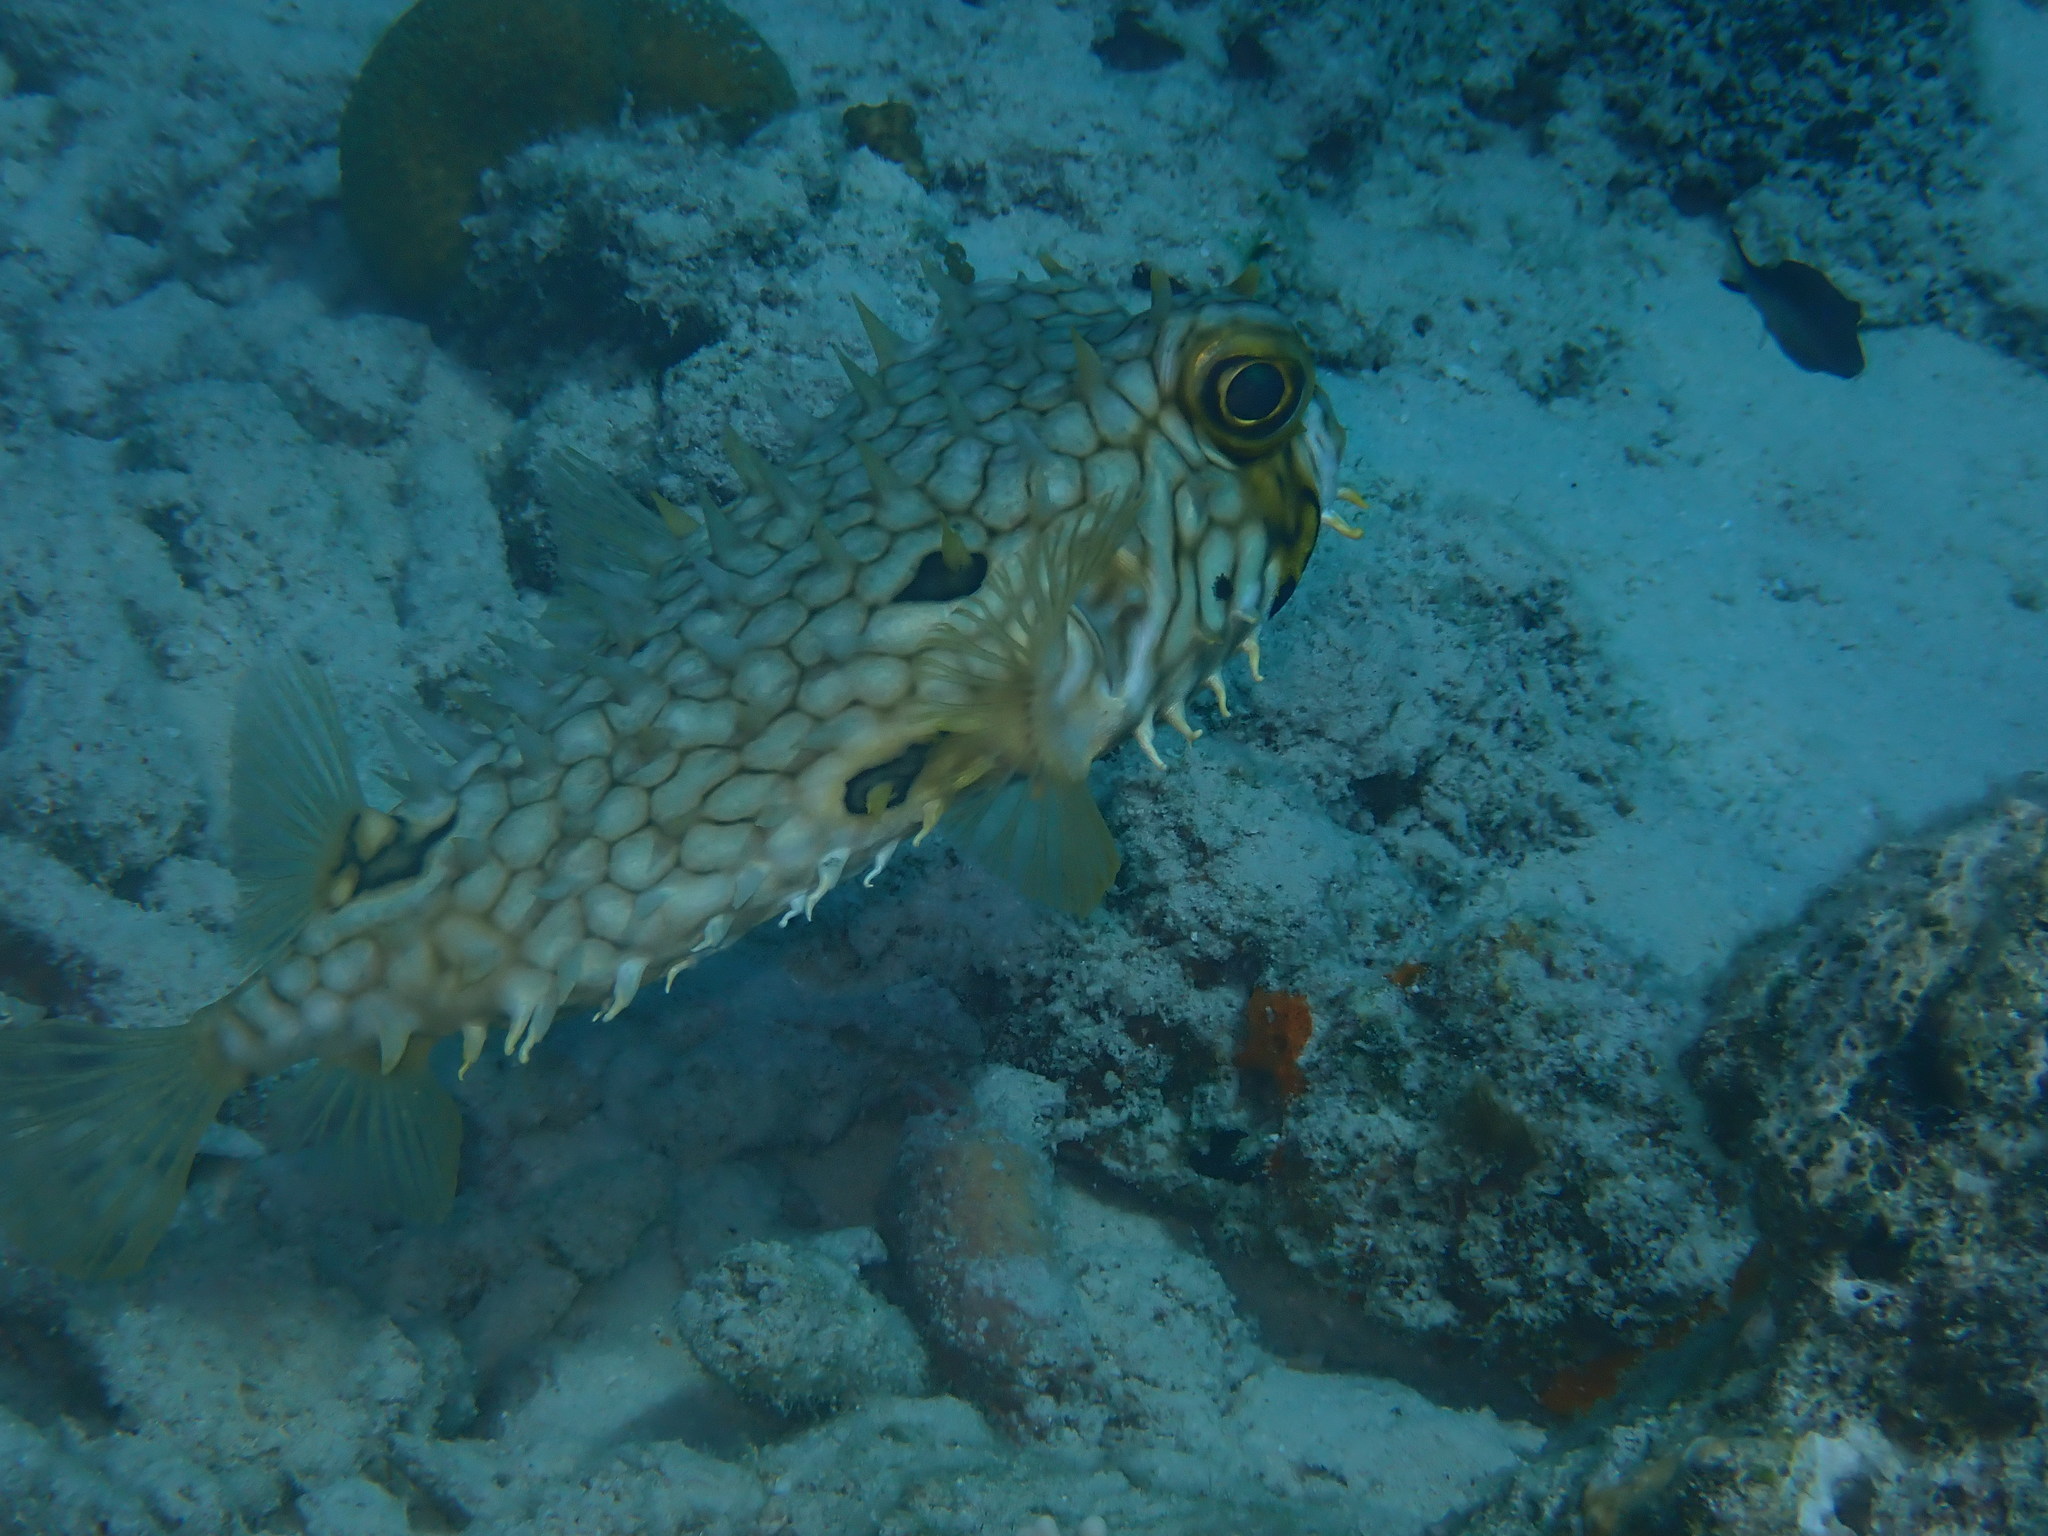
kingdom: Animalia
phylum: Chordata
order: Tetraodontiformes
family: Diodontidae
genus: Chilomycterus
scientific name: Chilomycterus antillarum
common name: Web burrfish
